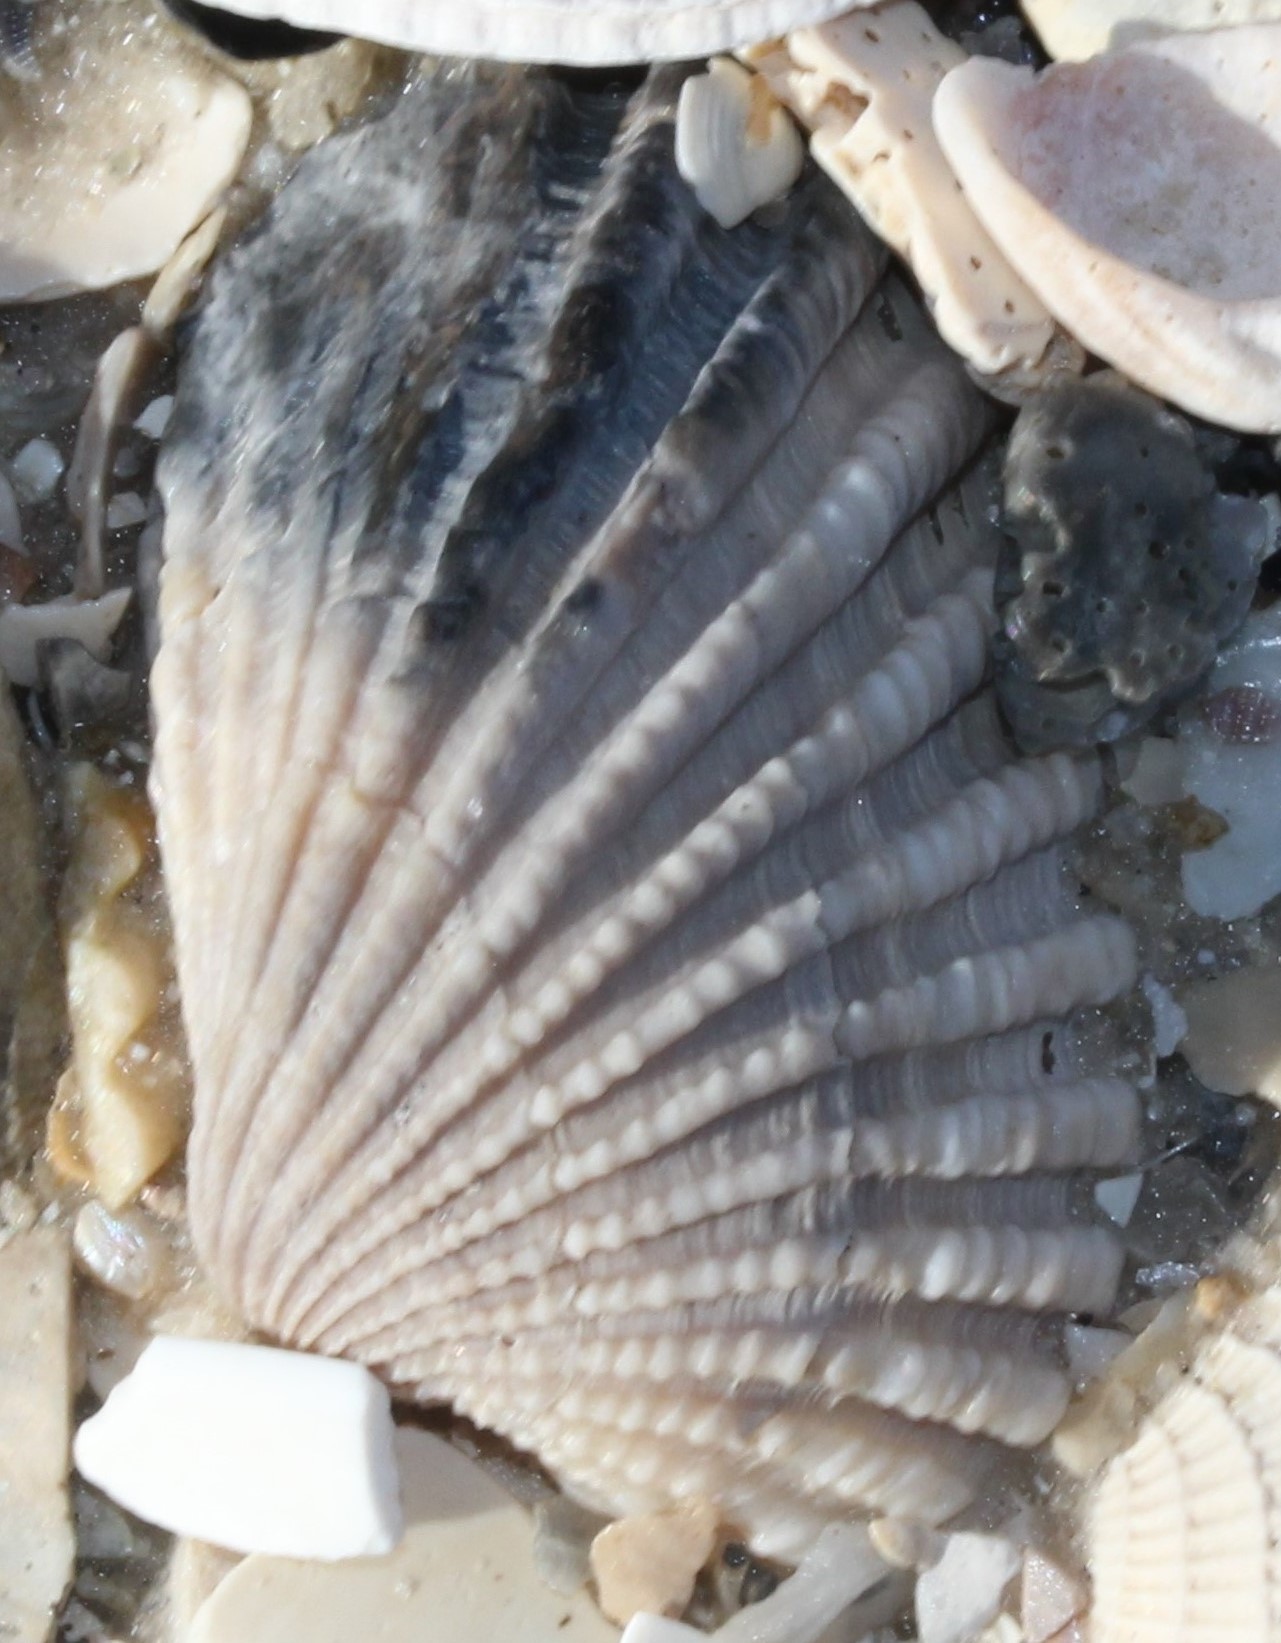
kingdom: Animalia
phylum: Mollusca
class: Bivalvia
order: Carditida
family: Carditidae
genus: Cardites
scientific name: Cardites floridanus
